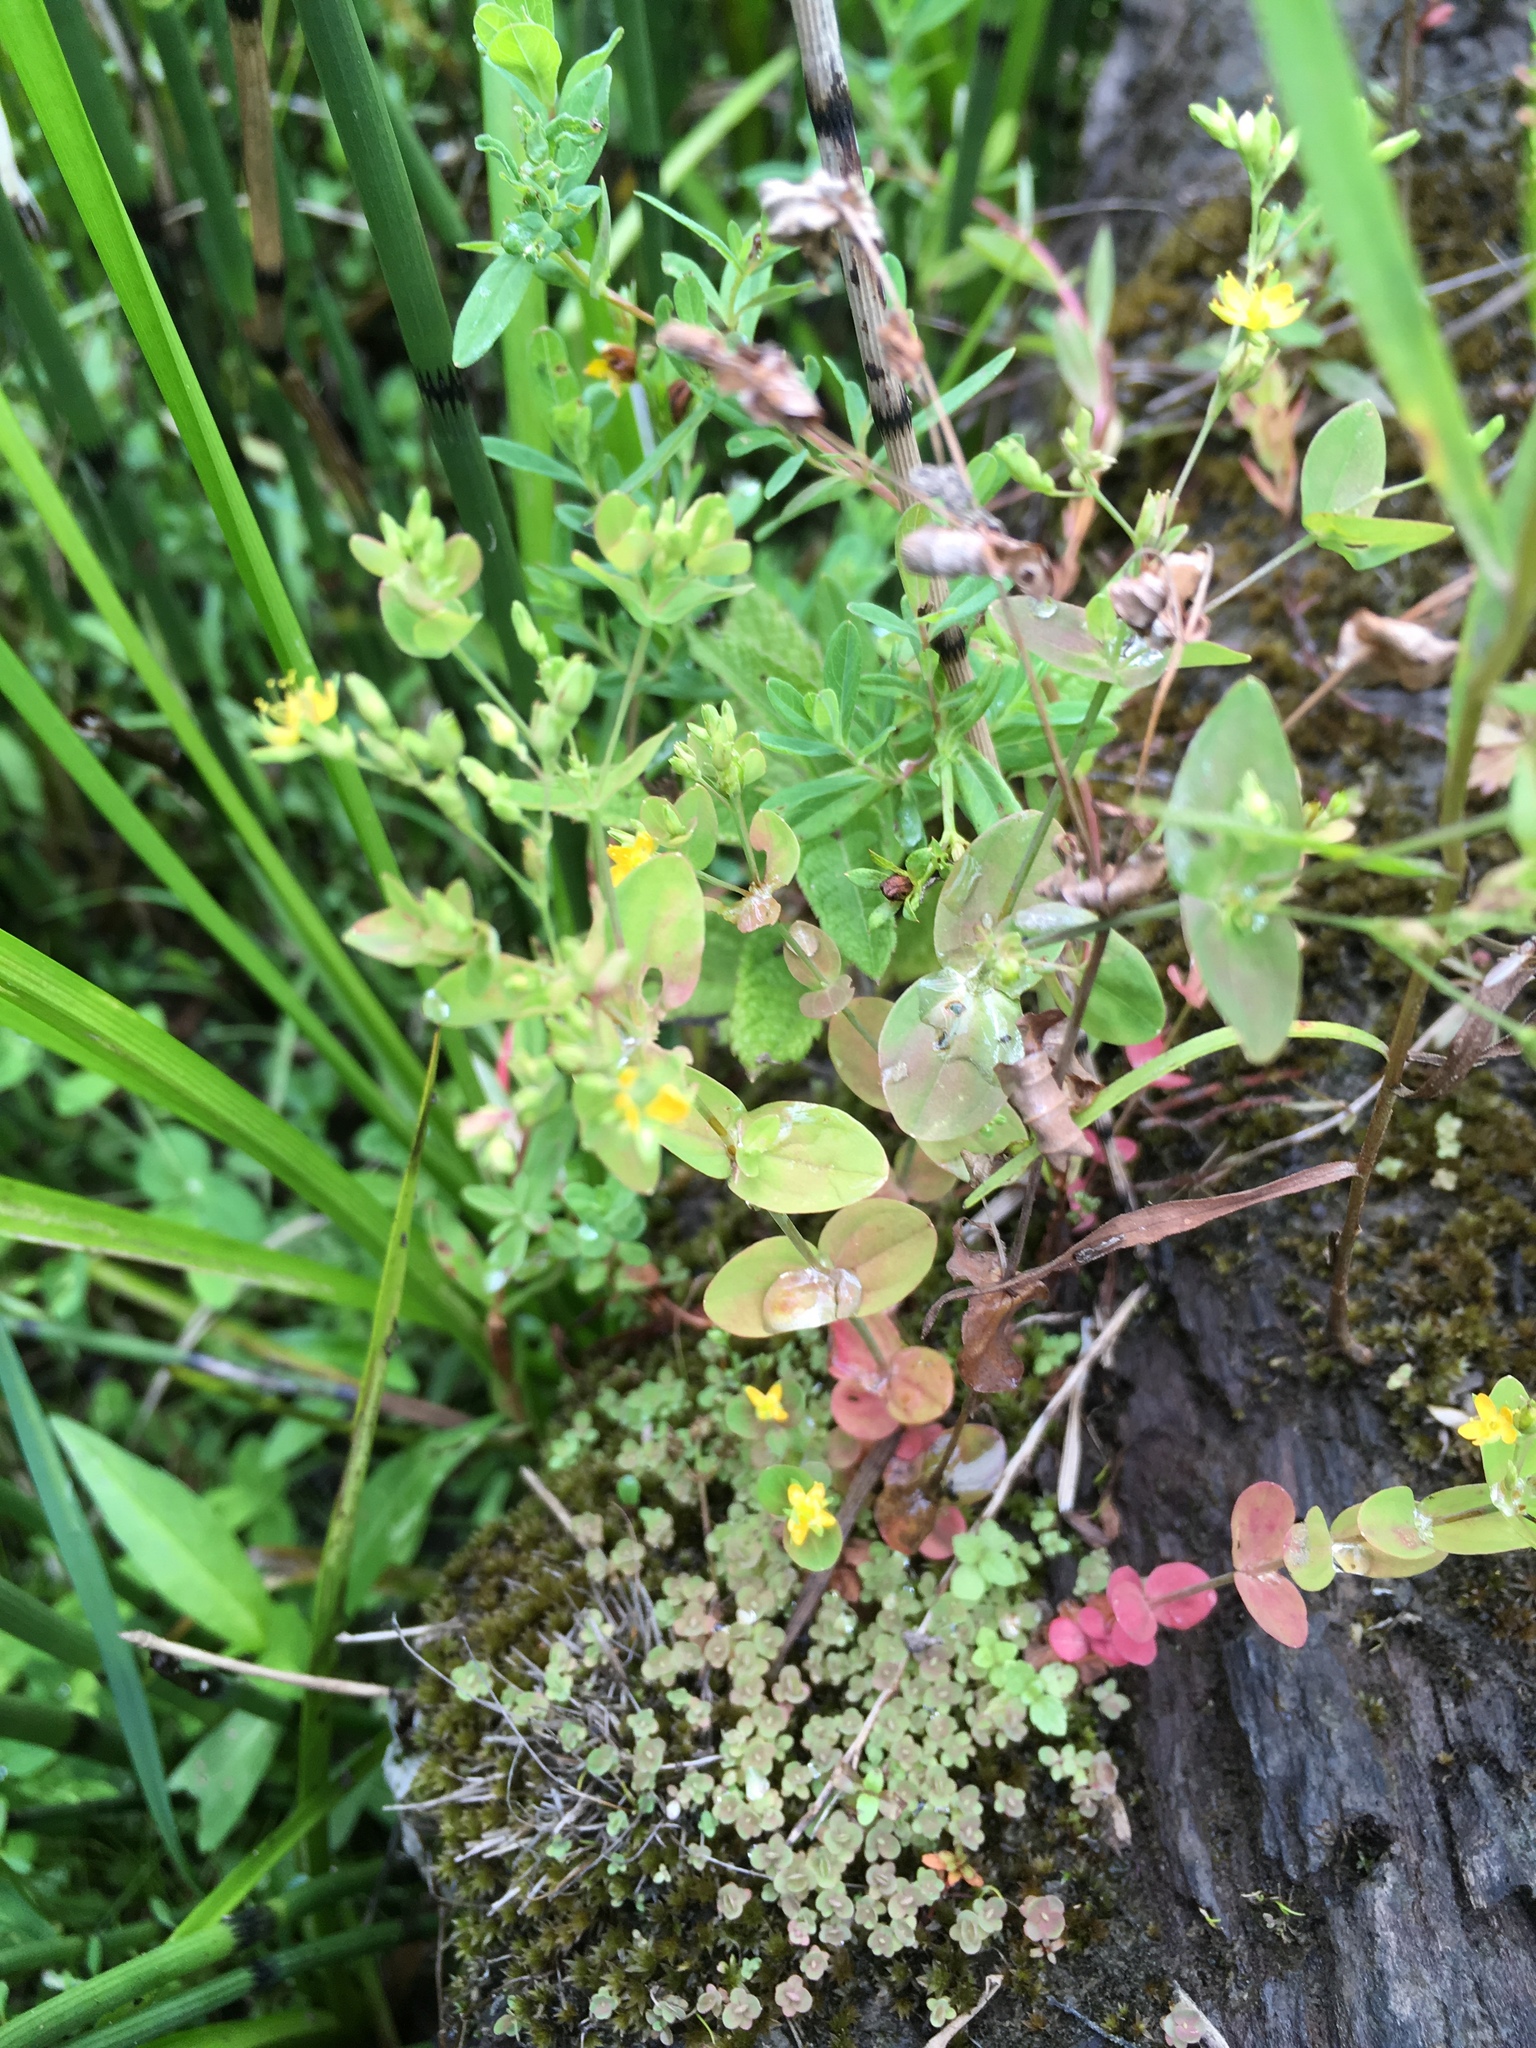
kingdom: Plantae
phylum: Tracheophyta
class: Magnoliopsida
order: Malpighiales
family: Hypericaceae
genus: Hypericum
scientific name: Hypericum mutilum
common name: Dwarf st. john's-wort
